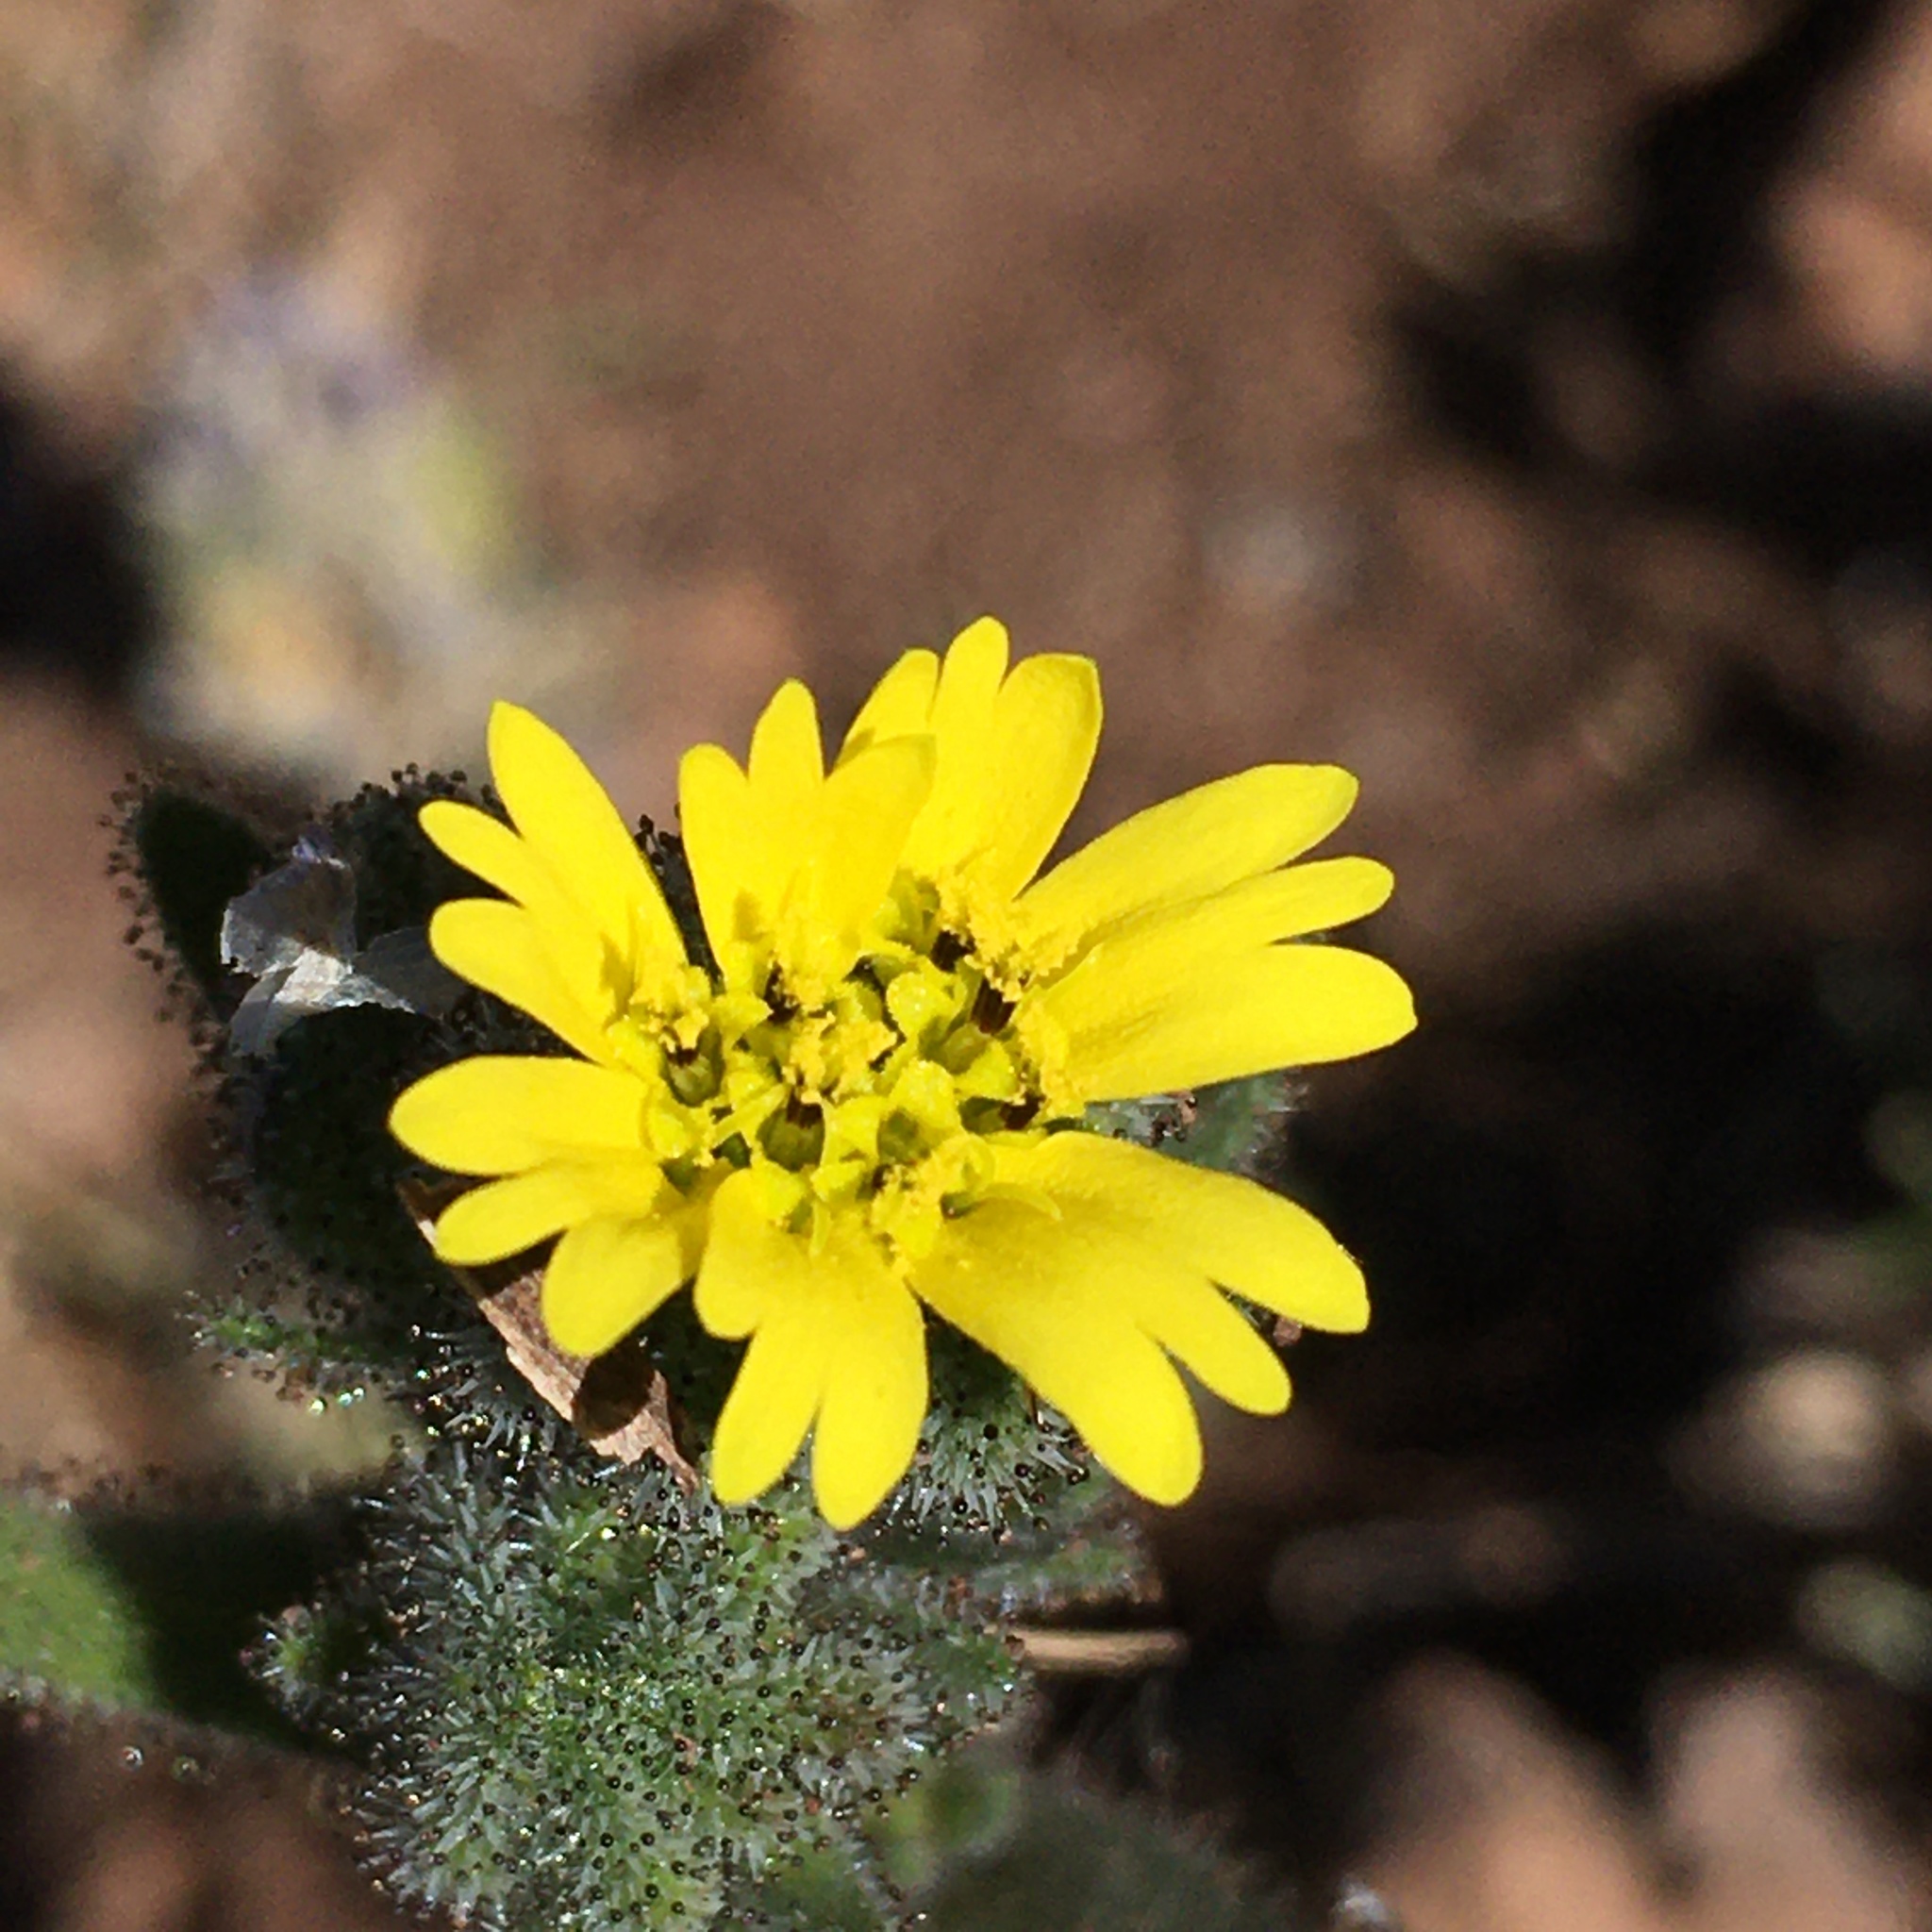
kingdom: Plantae
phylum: Tracheophyta
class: Magnoliopsida
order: Asterales
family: Asteraceae
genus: Madia
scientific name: Madia sativa
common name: Coast tarweed
